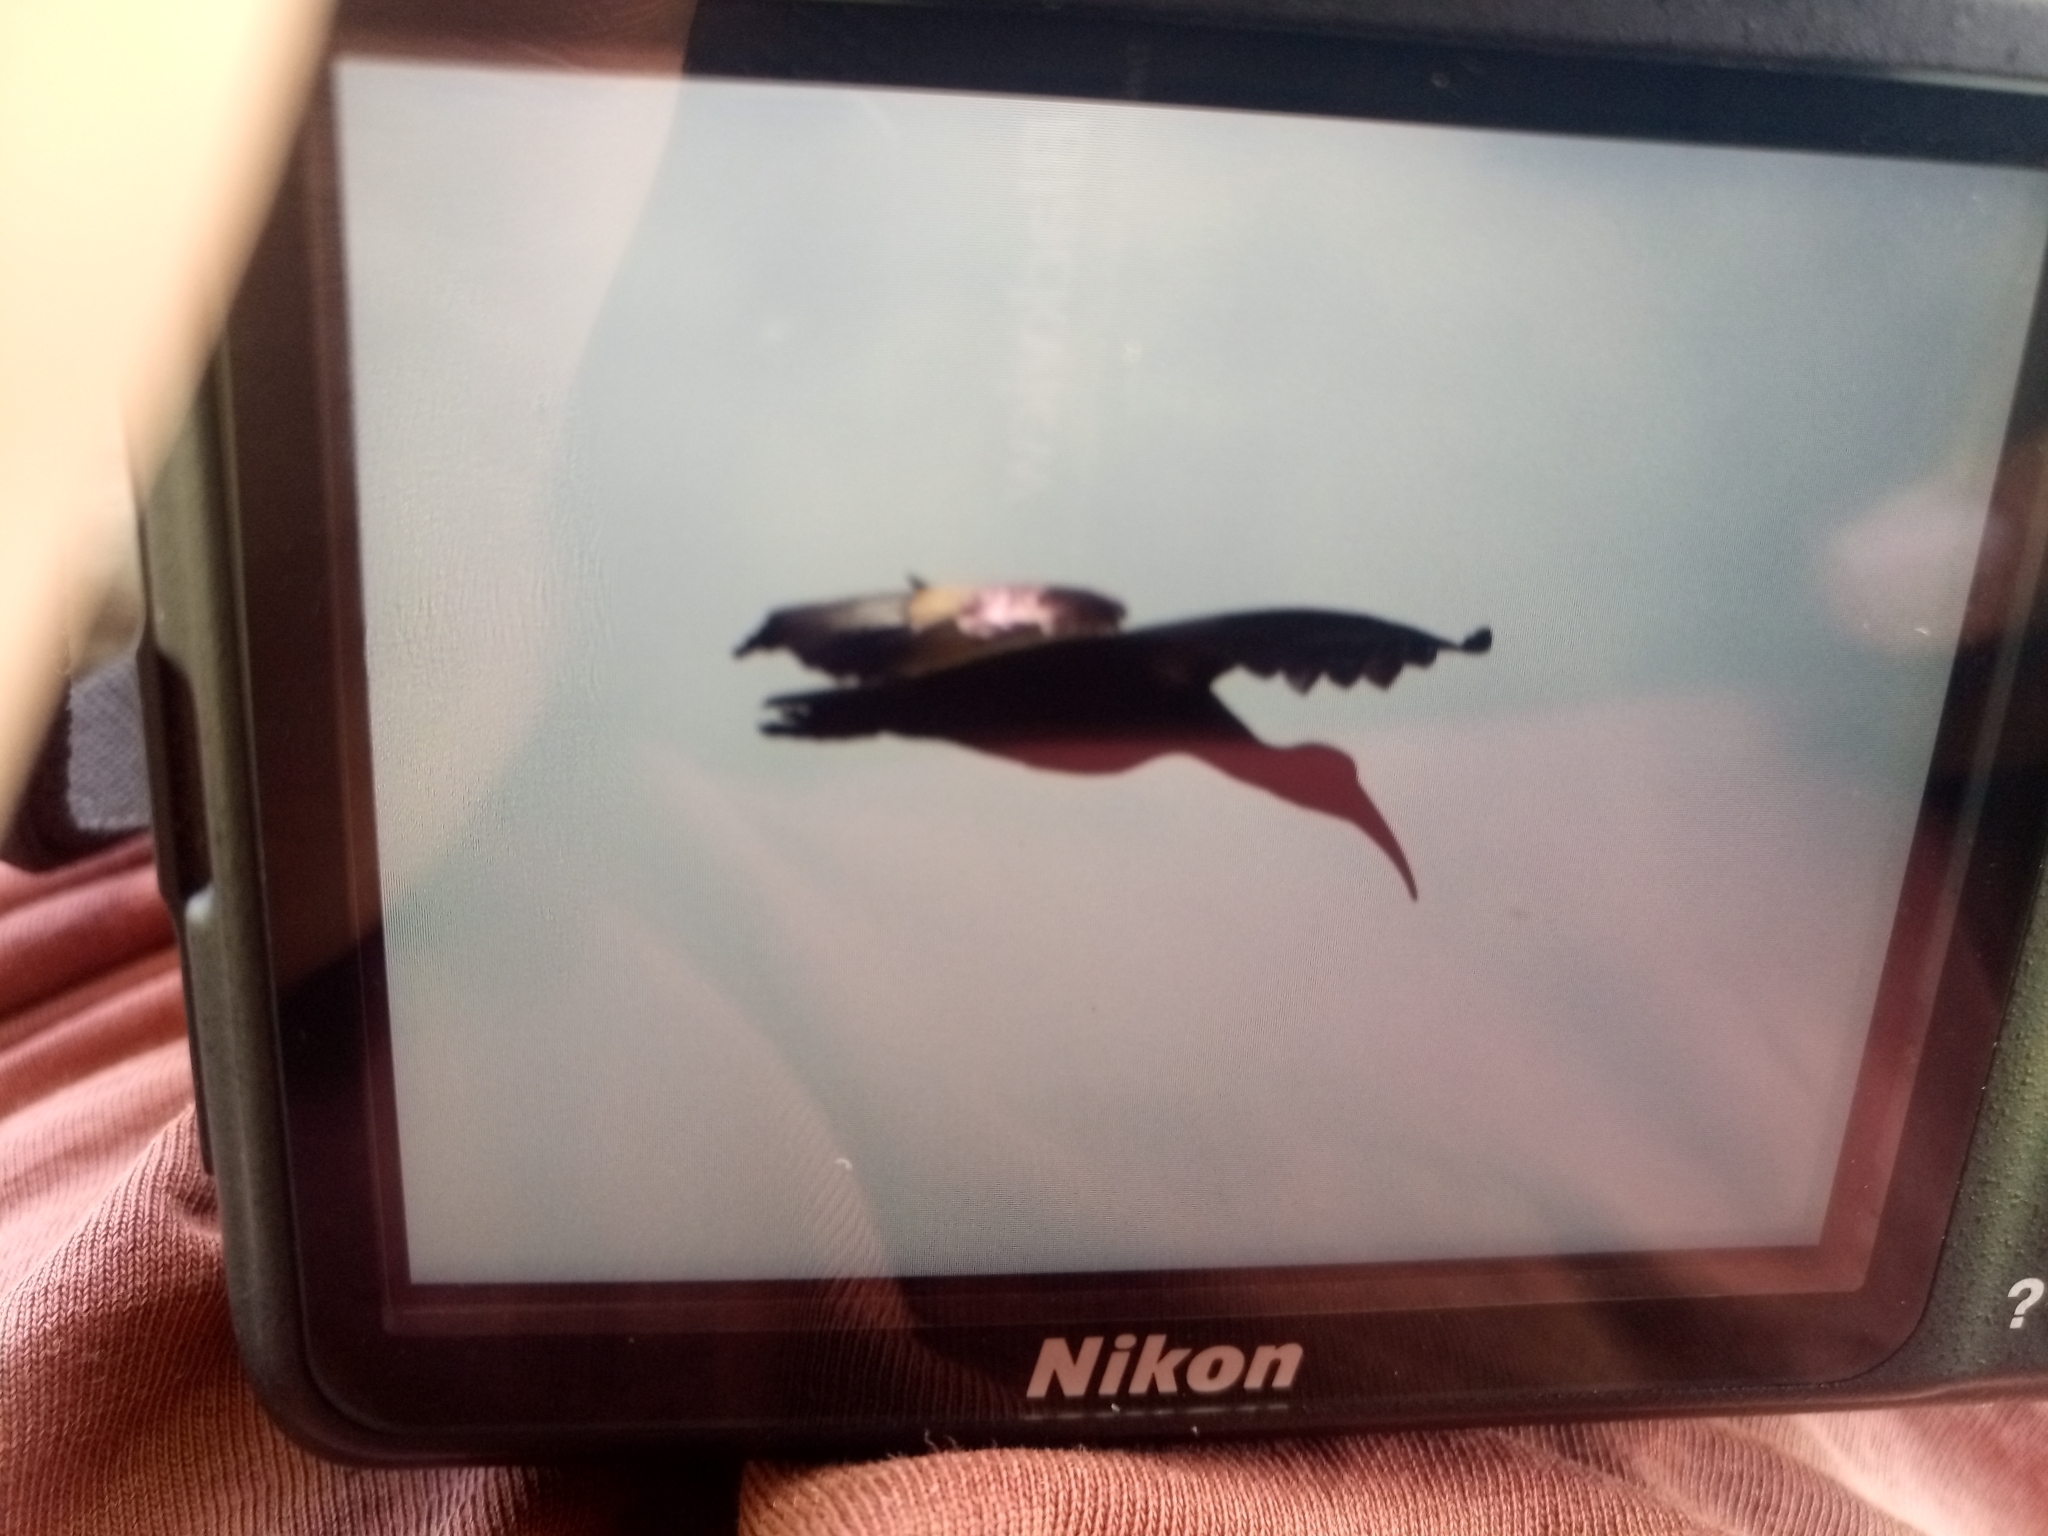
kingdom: Animalia
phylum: Chordata
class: Aves
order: Pelecaniformes
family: Threskiornithidae
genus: Bostrychia
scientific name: Bostrychia hagedash
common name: Hadada ibis
